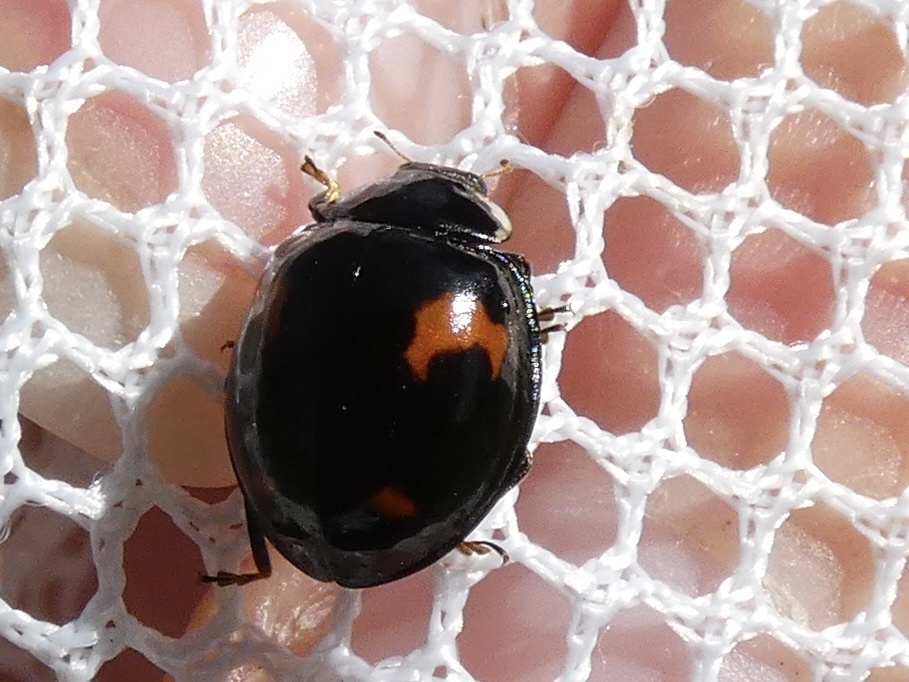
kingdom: Animalia
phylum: Arthropoda
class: Insecta
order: Coleoptera
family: Coccinellidae
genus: Harmonia
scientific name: Harmonia axyridis
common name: Harlequin ladybird
